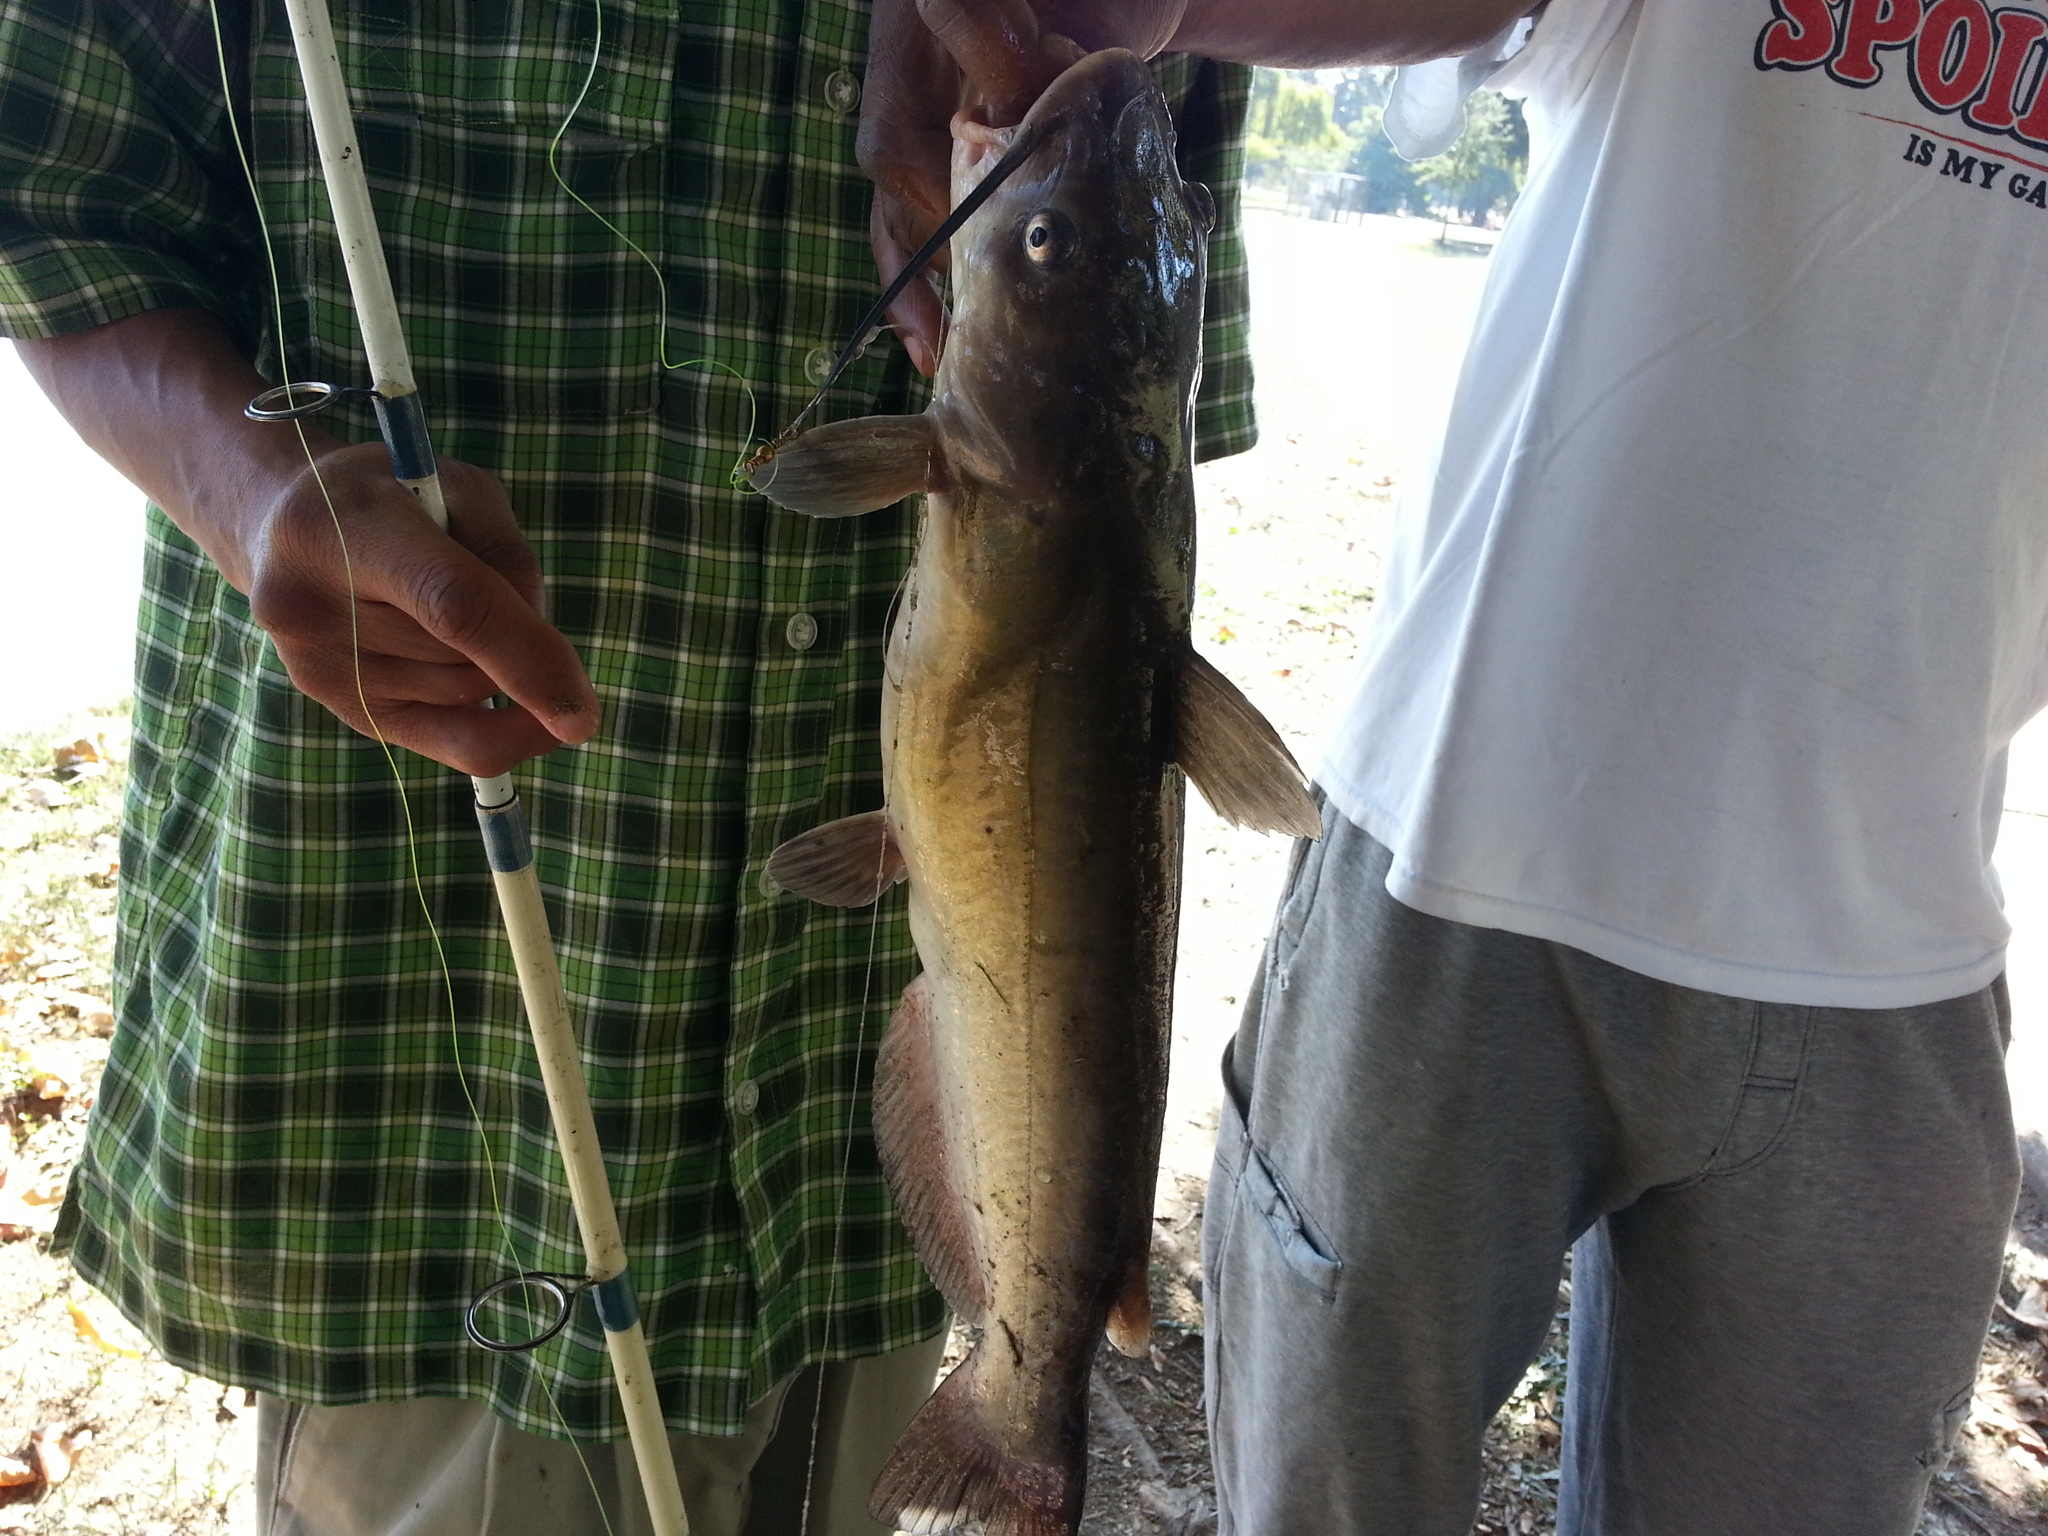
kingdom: Animalia
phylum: Chordata
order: Siluriformes
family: Ictaluridae
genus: Ictalurus
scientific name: Ictalurus punctatus
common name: Channel catfish
